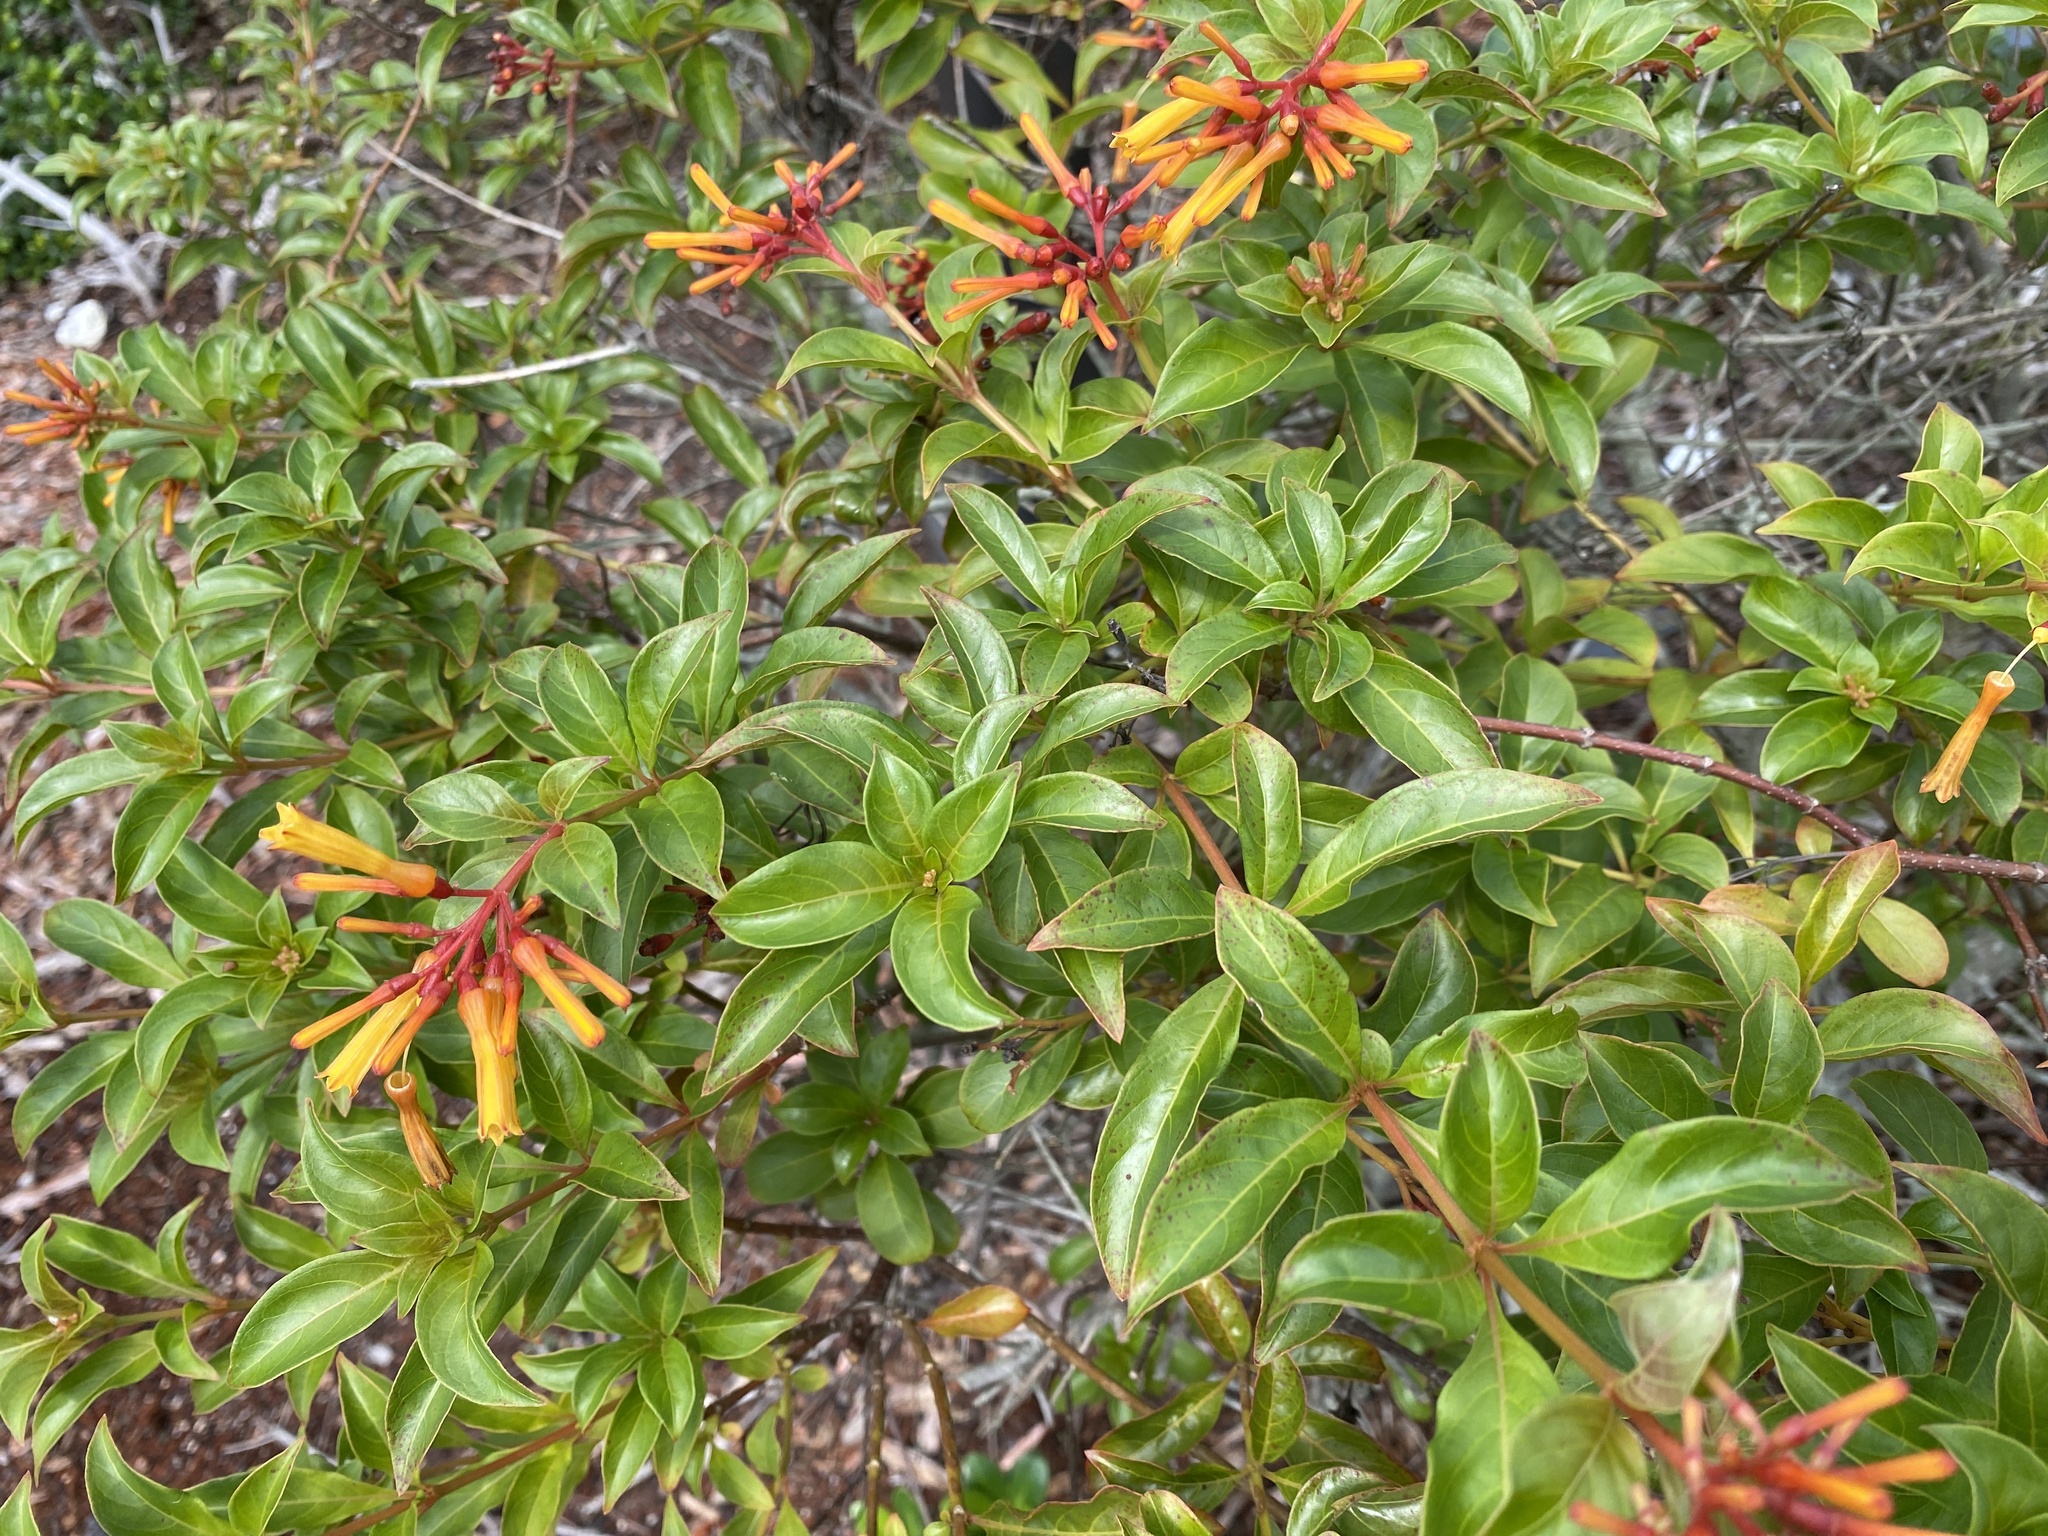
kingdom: Plantae
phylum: Tracheophyta
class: Magnoliopsida
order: Gentianales
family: Rubiaceae
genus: Hamelia
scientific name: Hamelia patens
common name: Redhead
